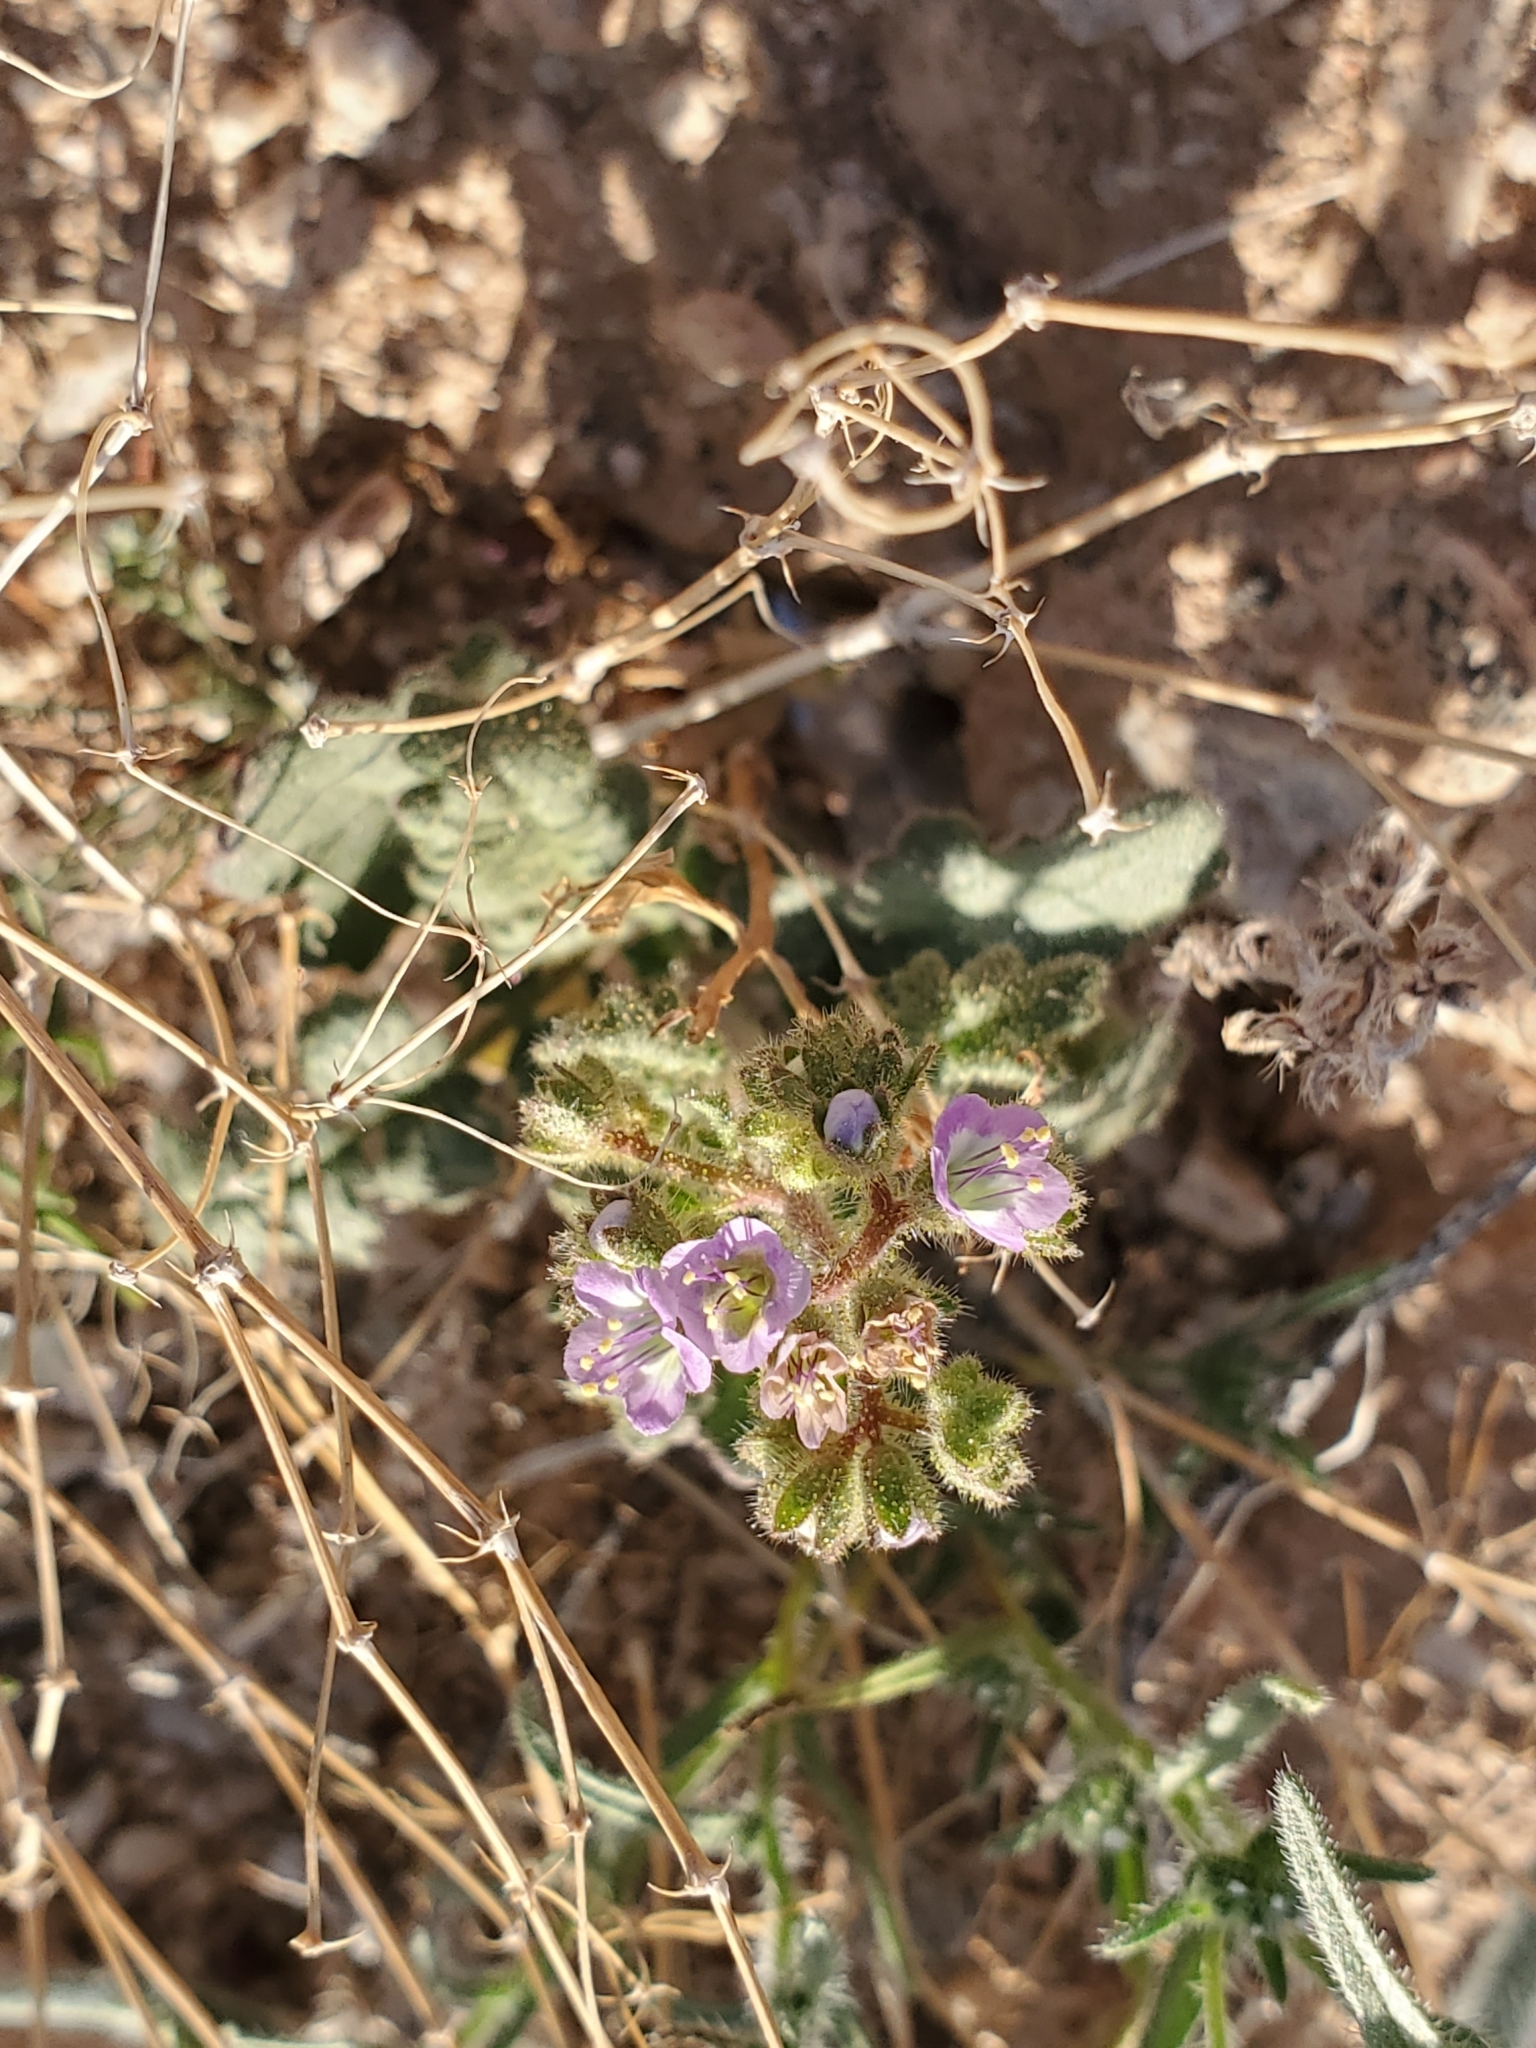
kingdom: Plantae
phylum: Tracheophyta
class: Magnoliopsida
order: Boraginales
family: Hydrophyllaceae
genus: Phacelia
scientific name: Phacelia crenulata
